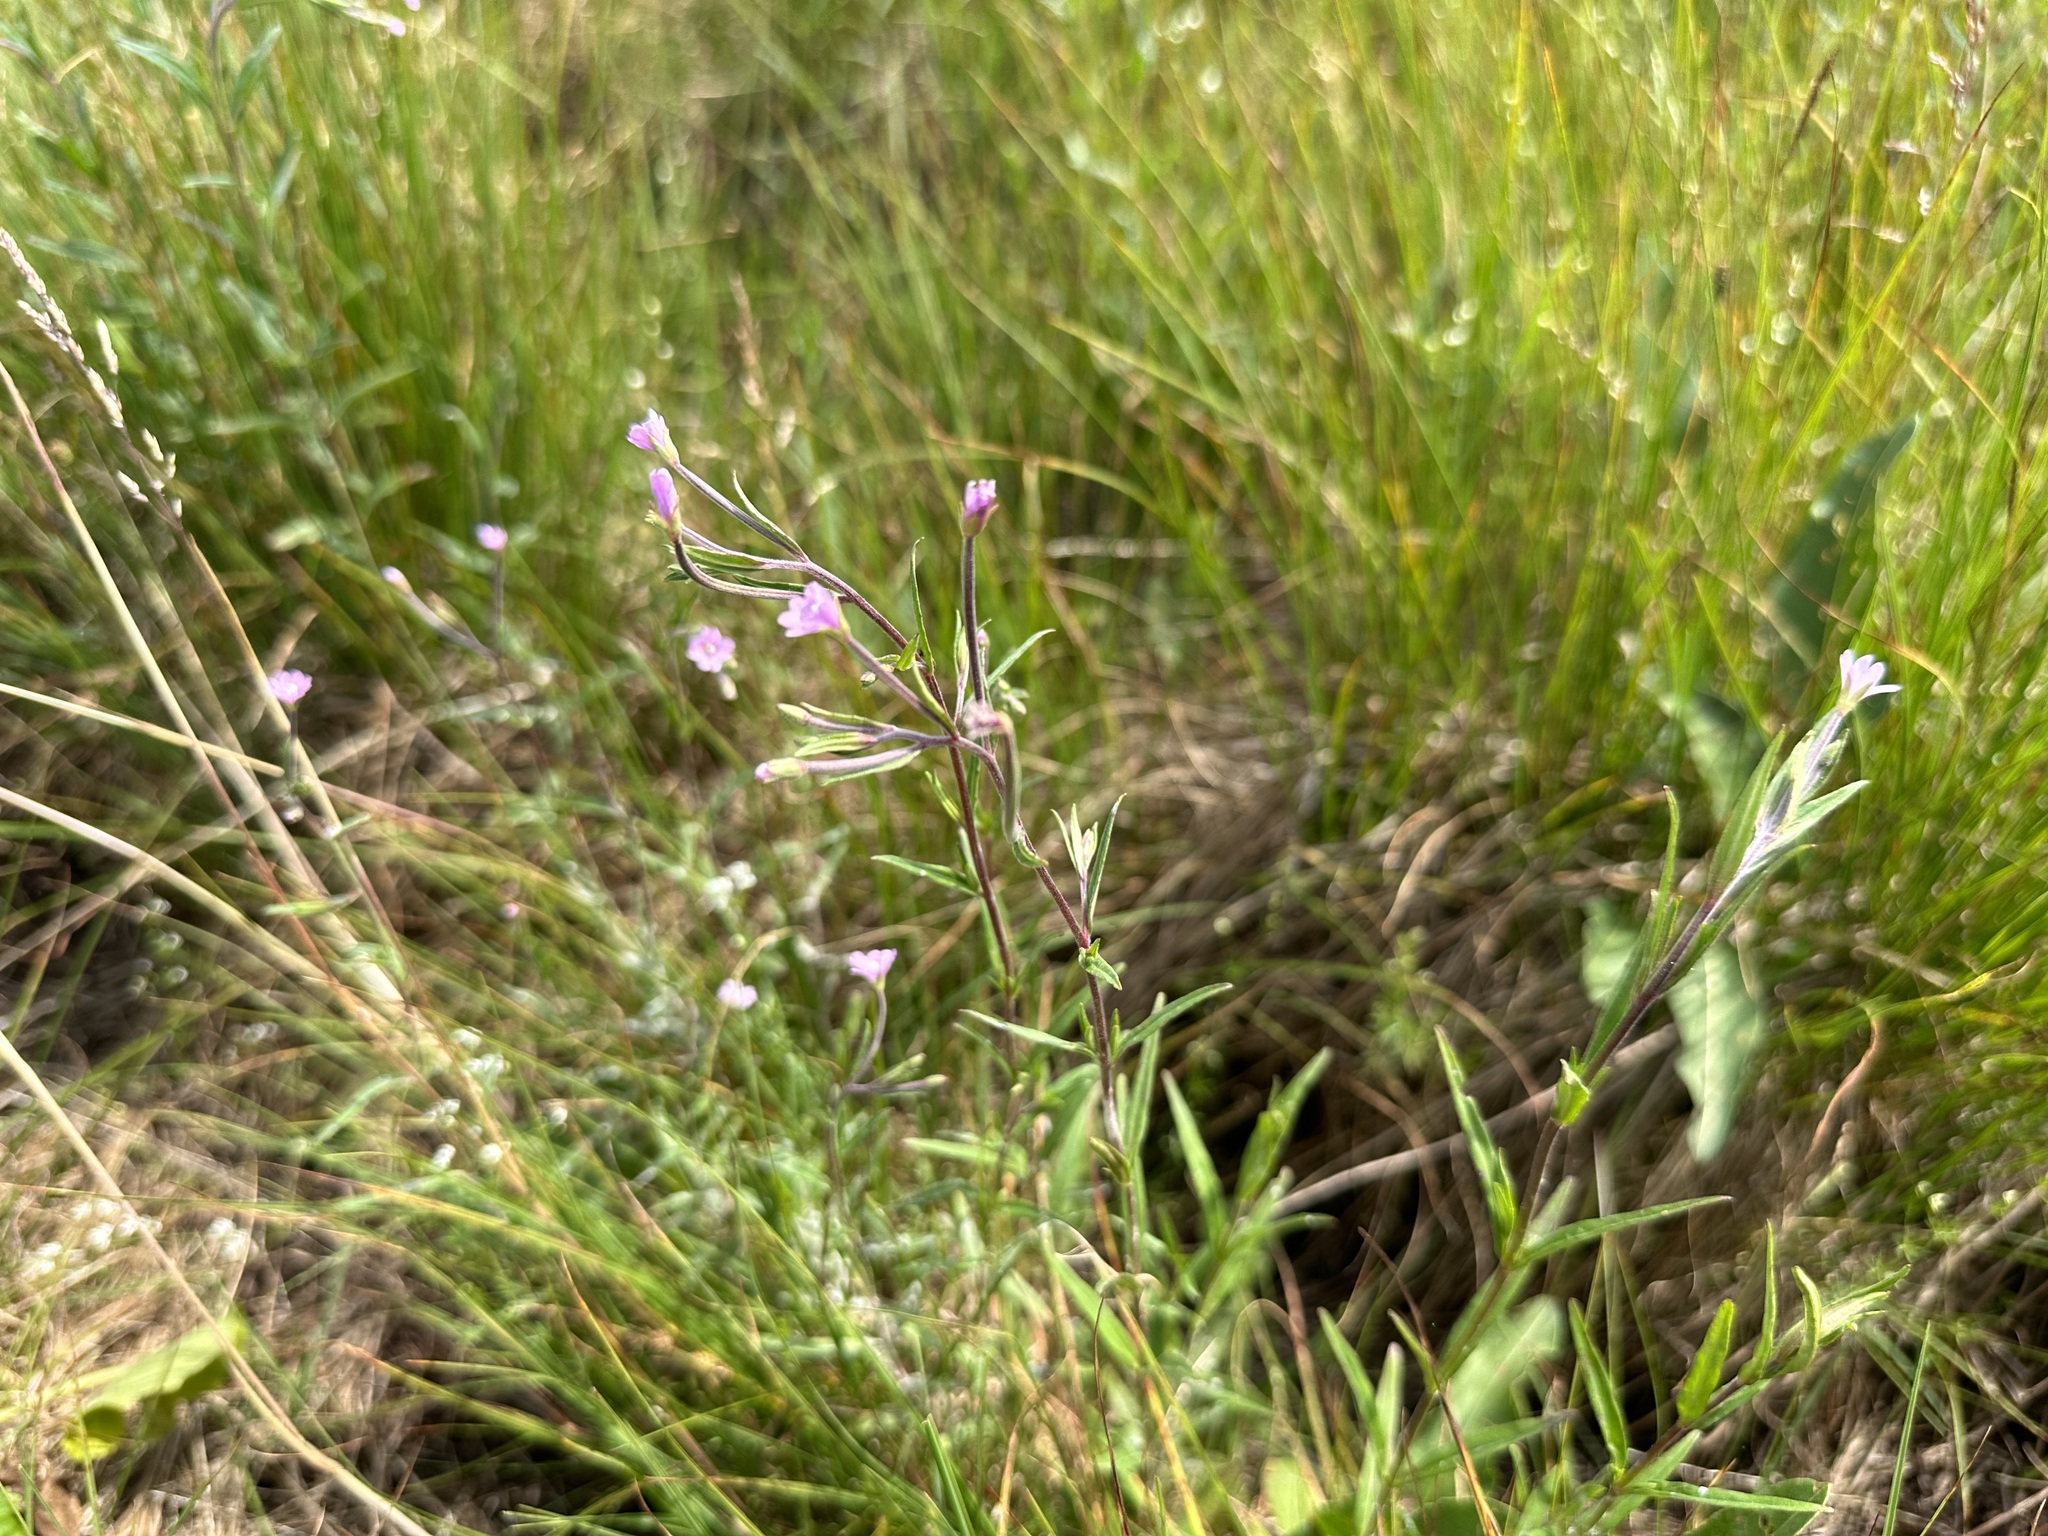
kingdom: Plantae
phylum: Tracheophyta
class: Magnoliopsida
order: Myrtales
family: Onagraceae
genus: Epilobium
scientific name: Epilobium parviflorum
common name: Hoary willowherb
